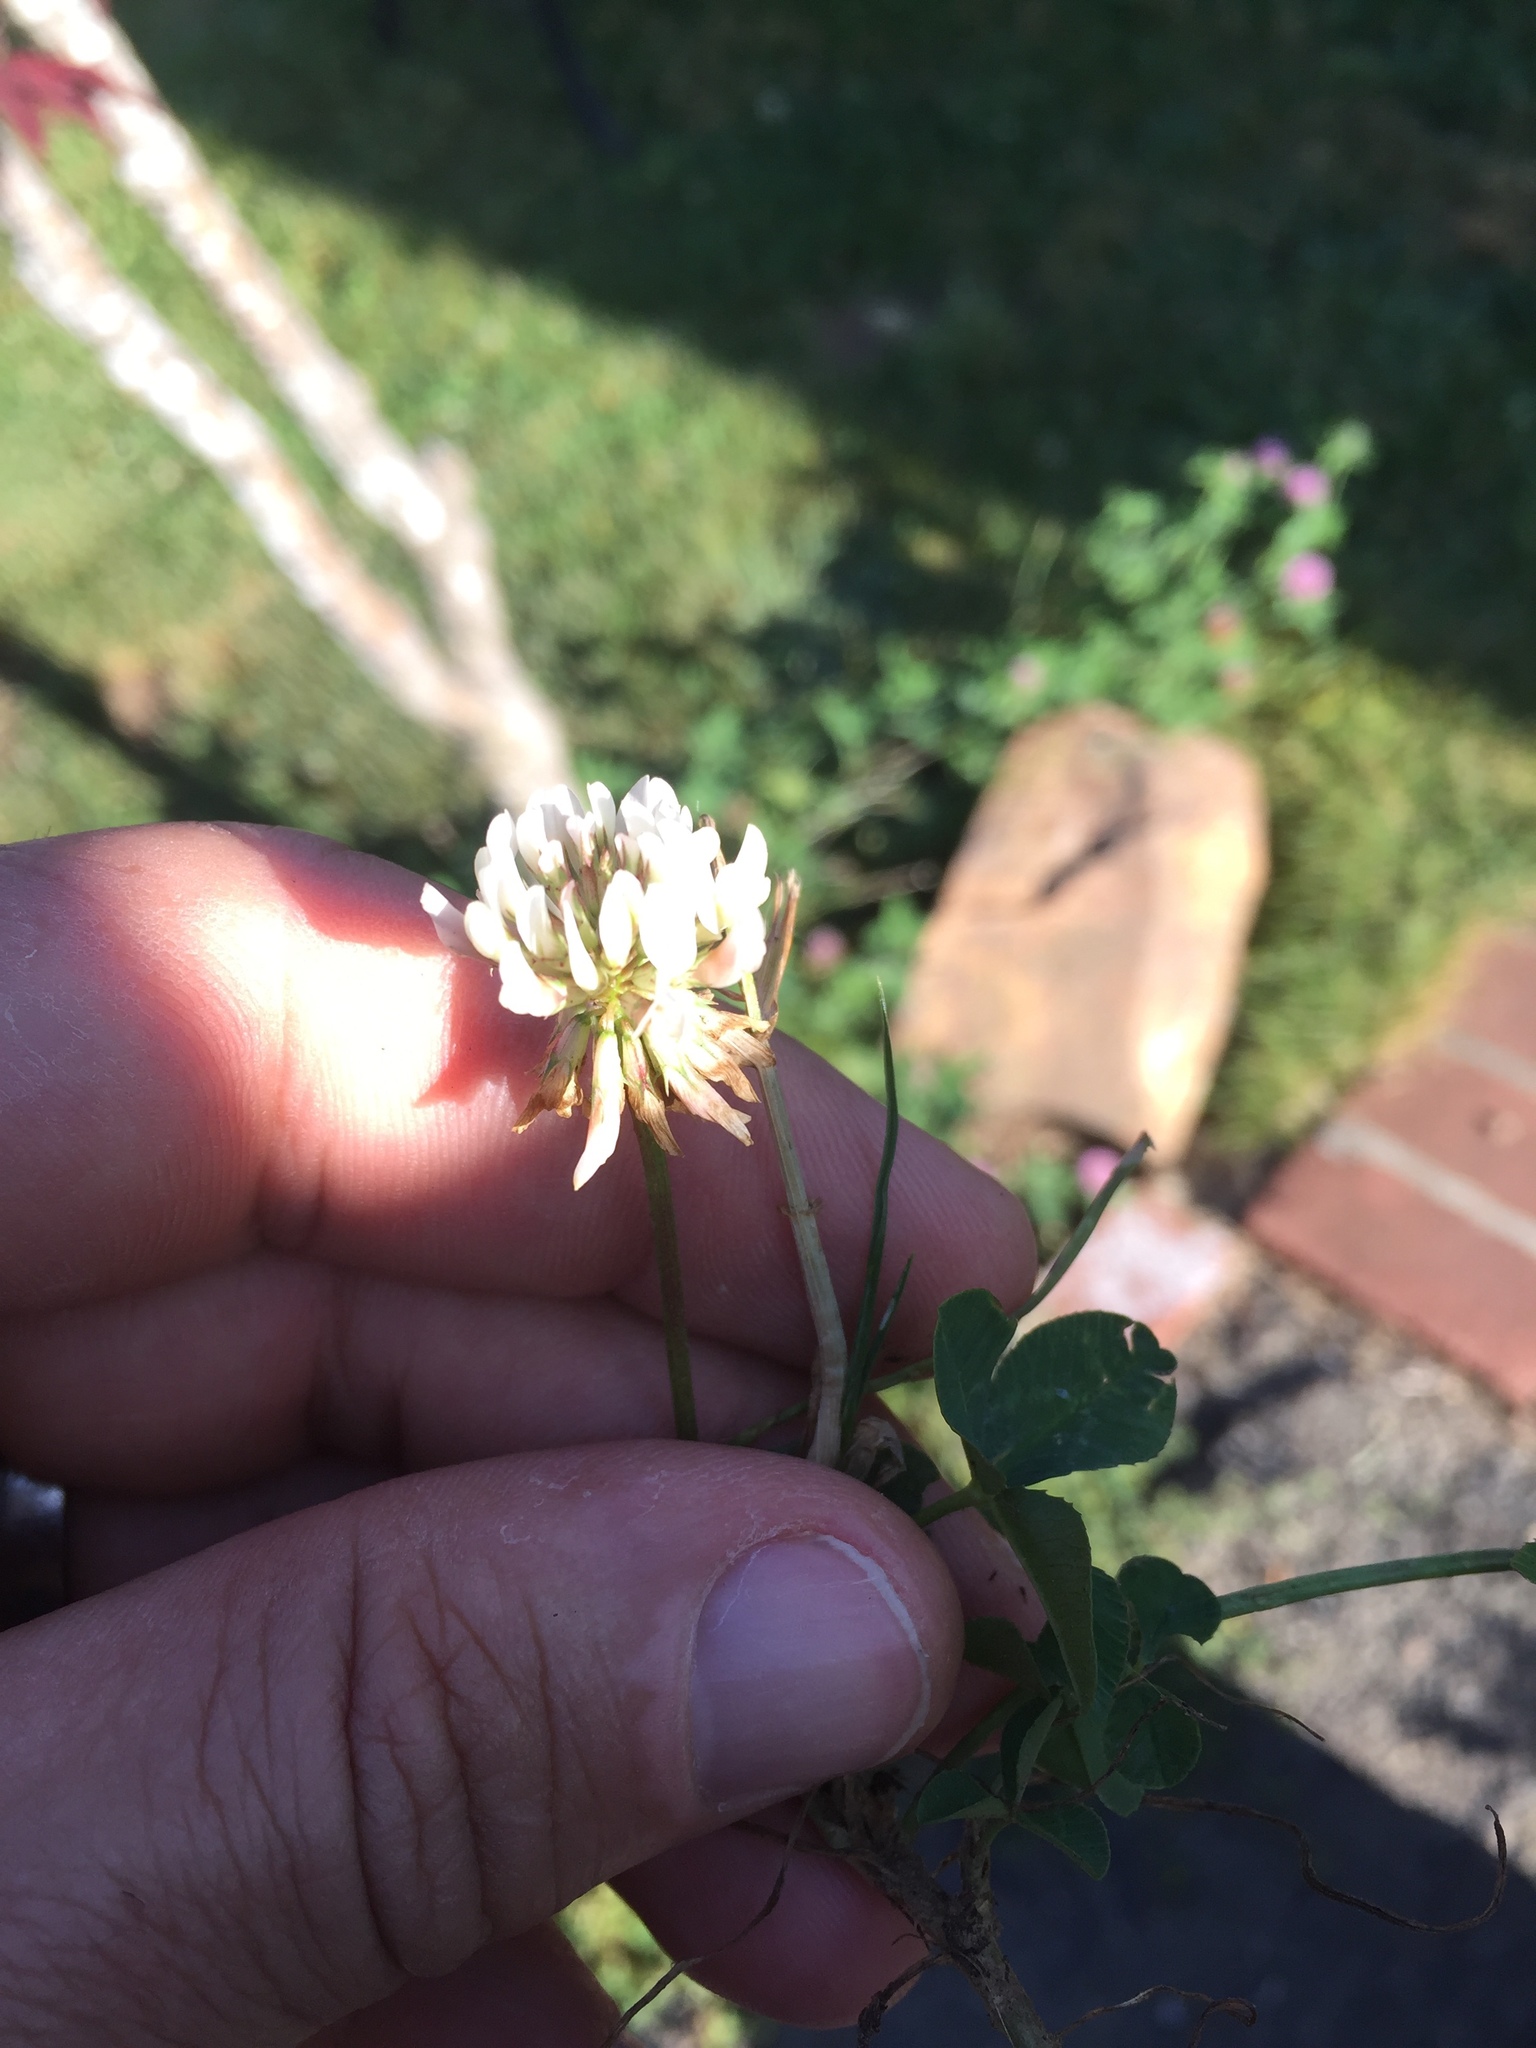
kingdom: Plantae
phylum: Tracheophyta
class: Magnoliopsida
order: Fabales
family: Fabaceae
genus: Trifolium
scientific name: Trifolium repens
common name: White clover
